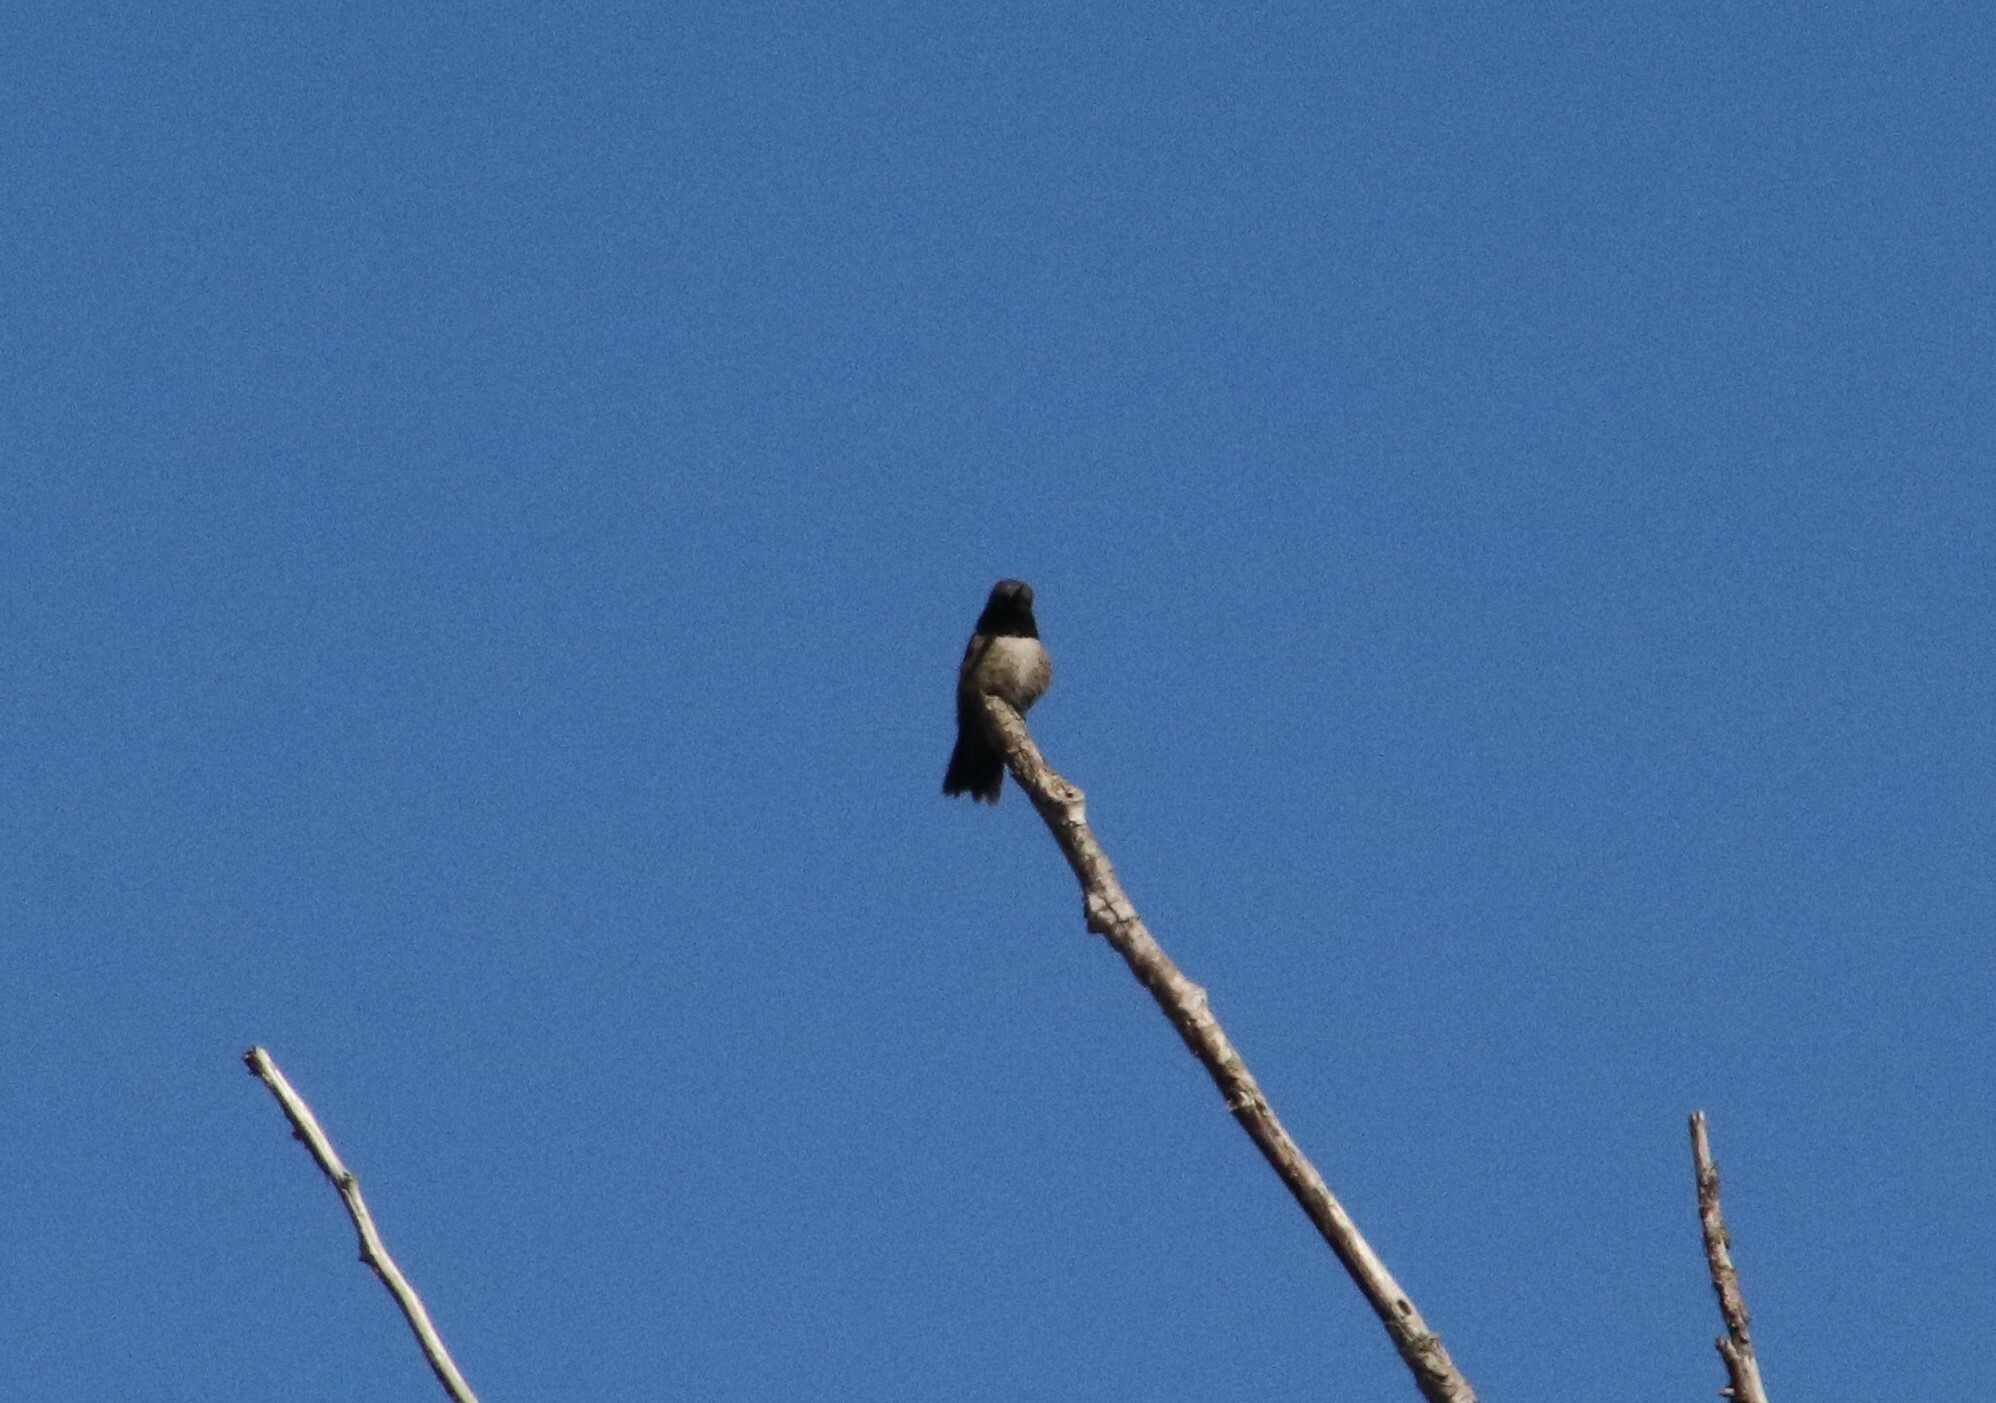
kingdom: Animalia
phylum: Chordata
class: Aves
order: Apodiformes
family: Trochilidae
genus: Archilochus
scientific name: Archilochus alexandri
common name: Black-chinned hummingbird
